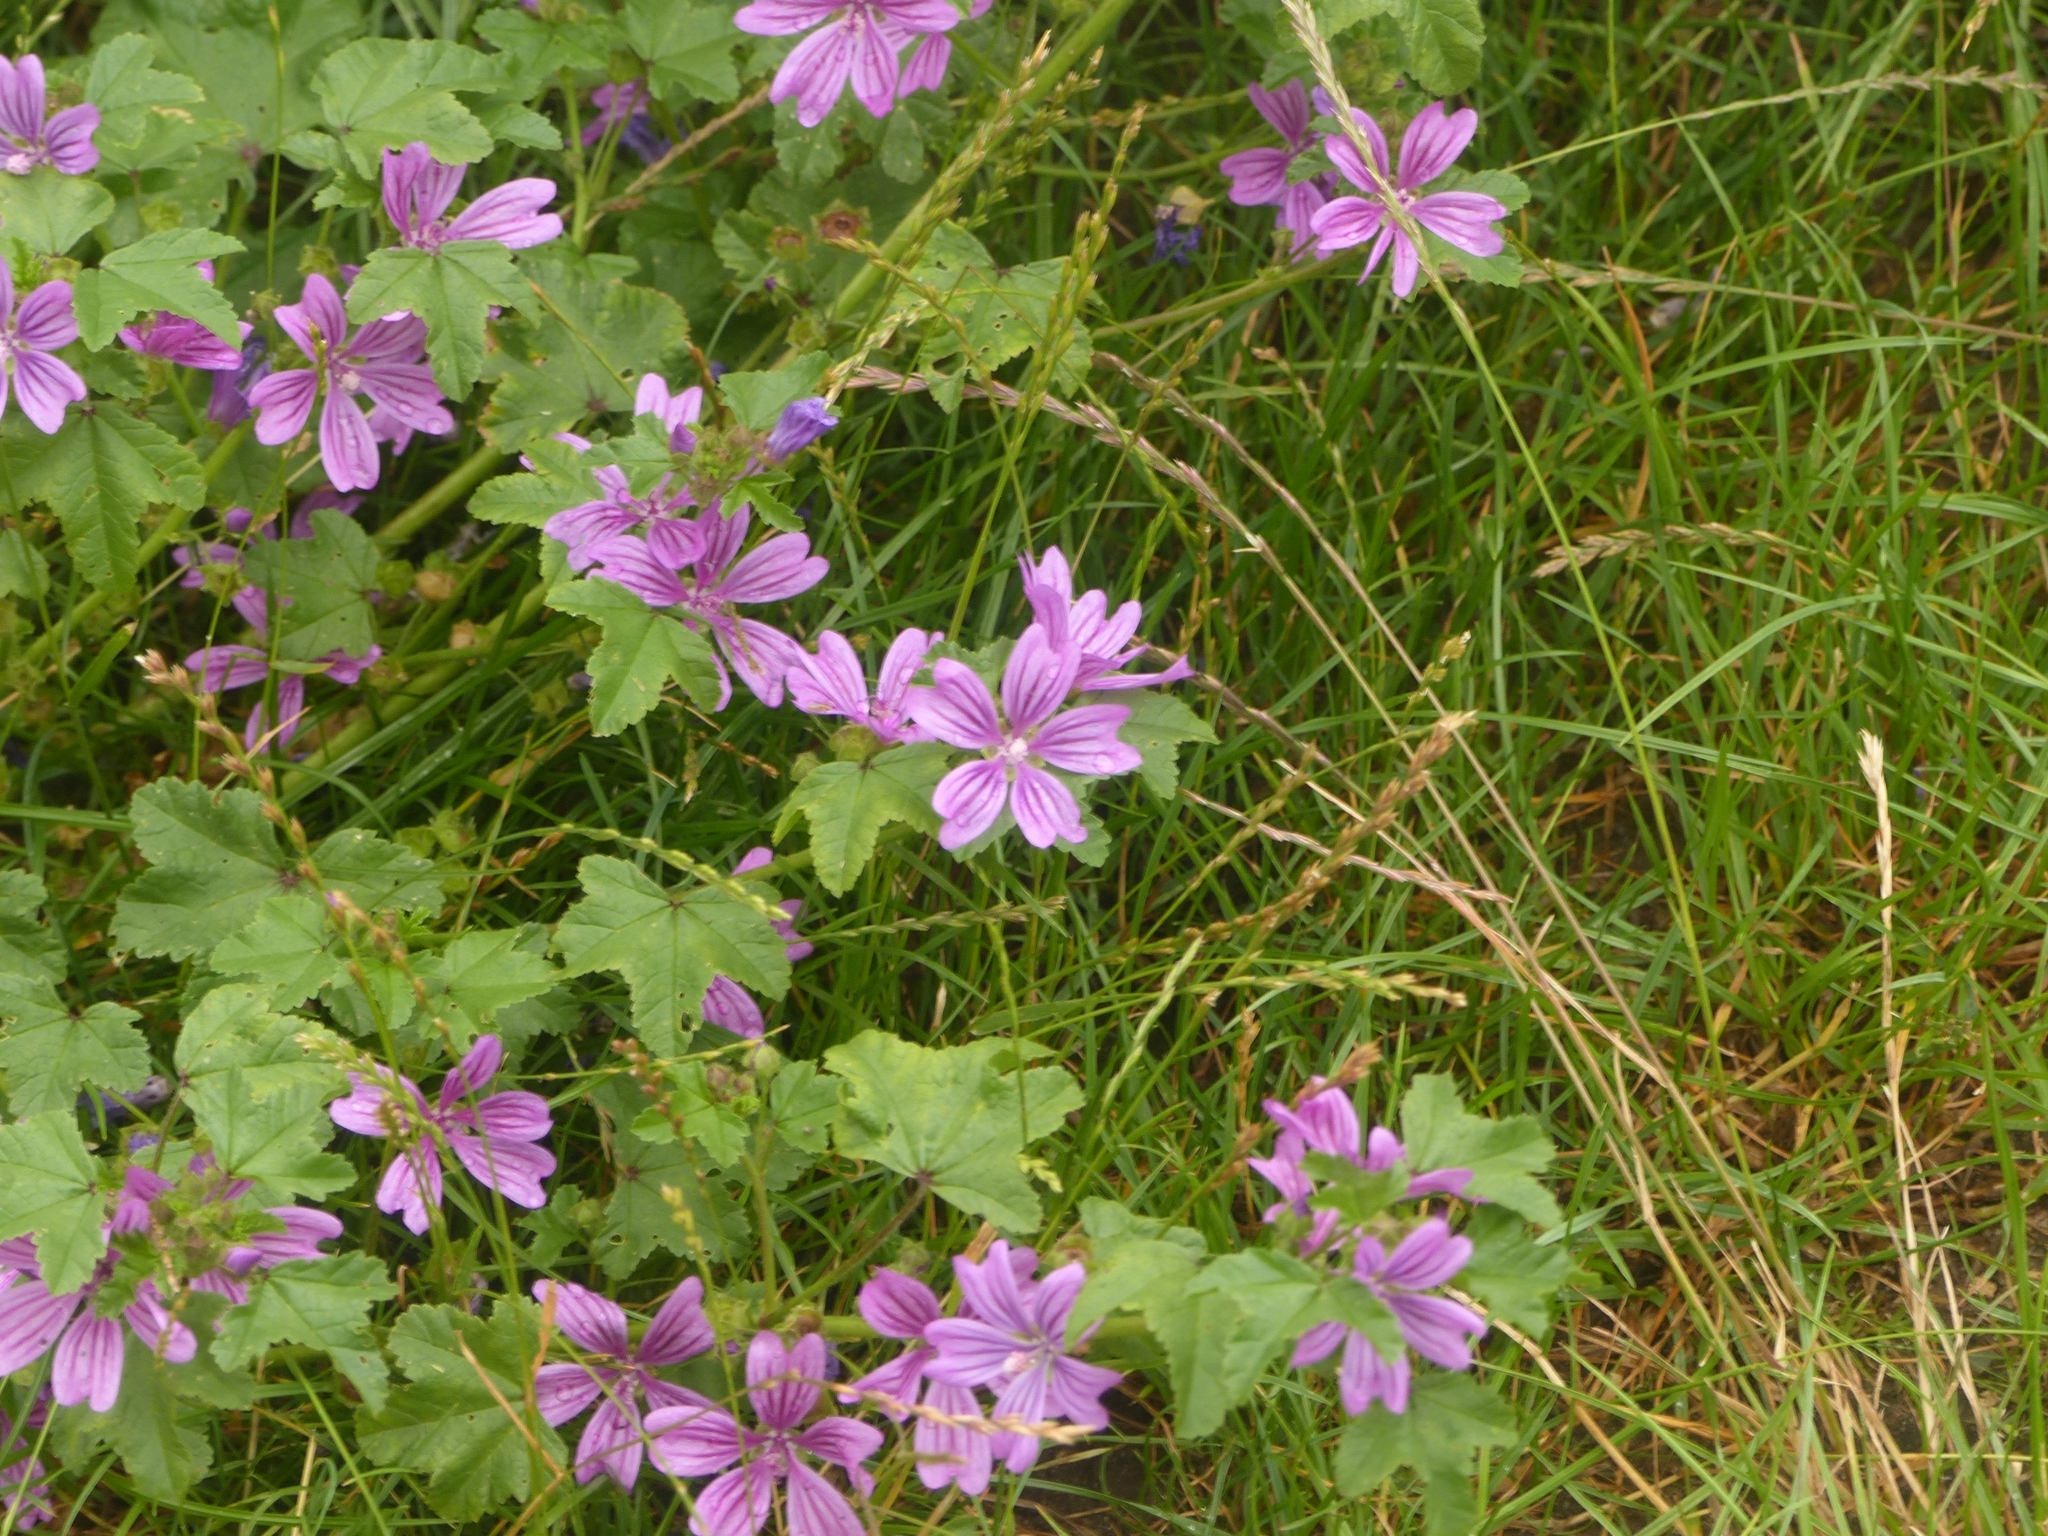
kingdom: Plantae
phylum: Tracheophyta
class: Magnoliopsida
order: Malvales
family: Malvaceae
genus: Malva
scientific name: Malva sylvestris
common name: Common mallow
